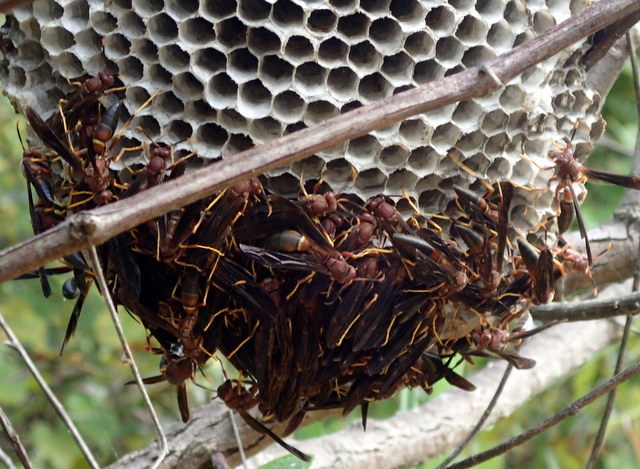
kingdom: Animalia
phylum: Arthropoda
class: Insecta
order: Hymenoptera
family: Eumenidae
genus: Polistes
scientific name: Polistes annularis
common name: Ringed paper wasp
